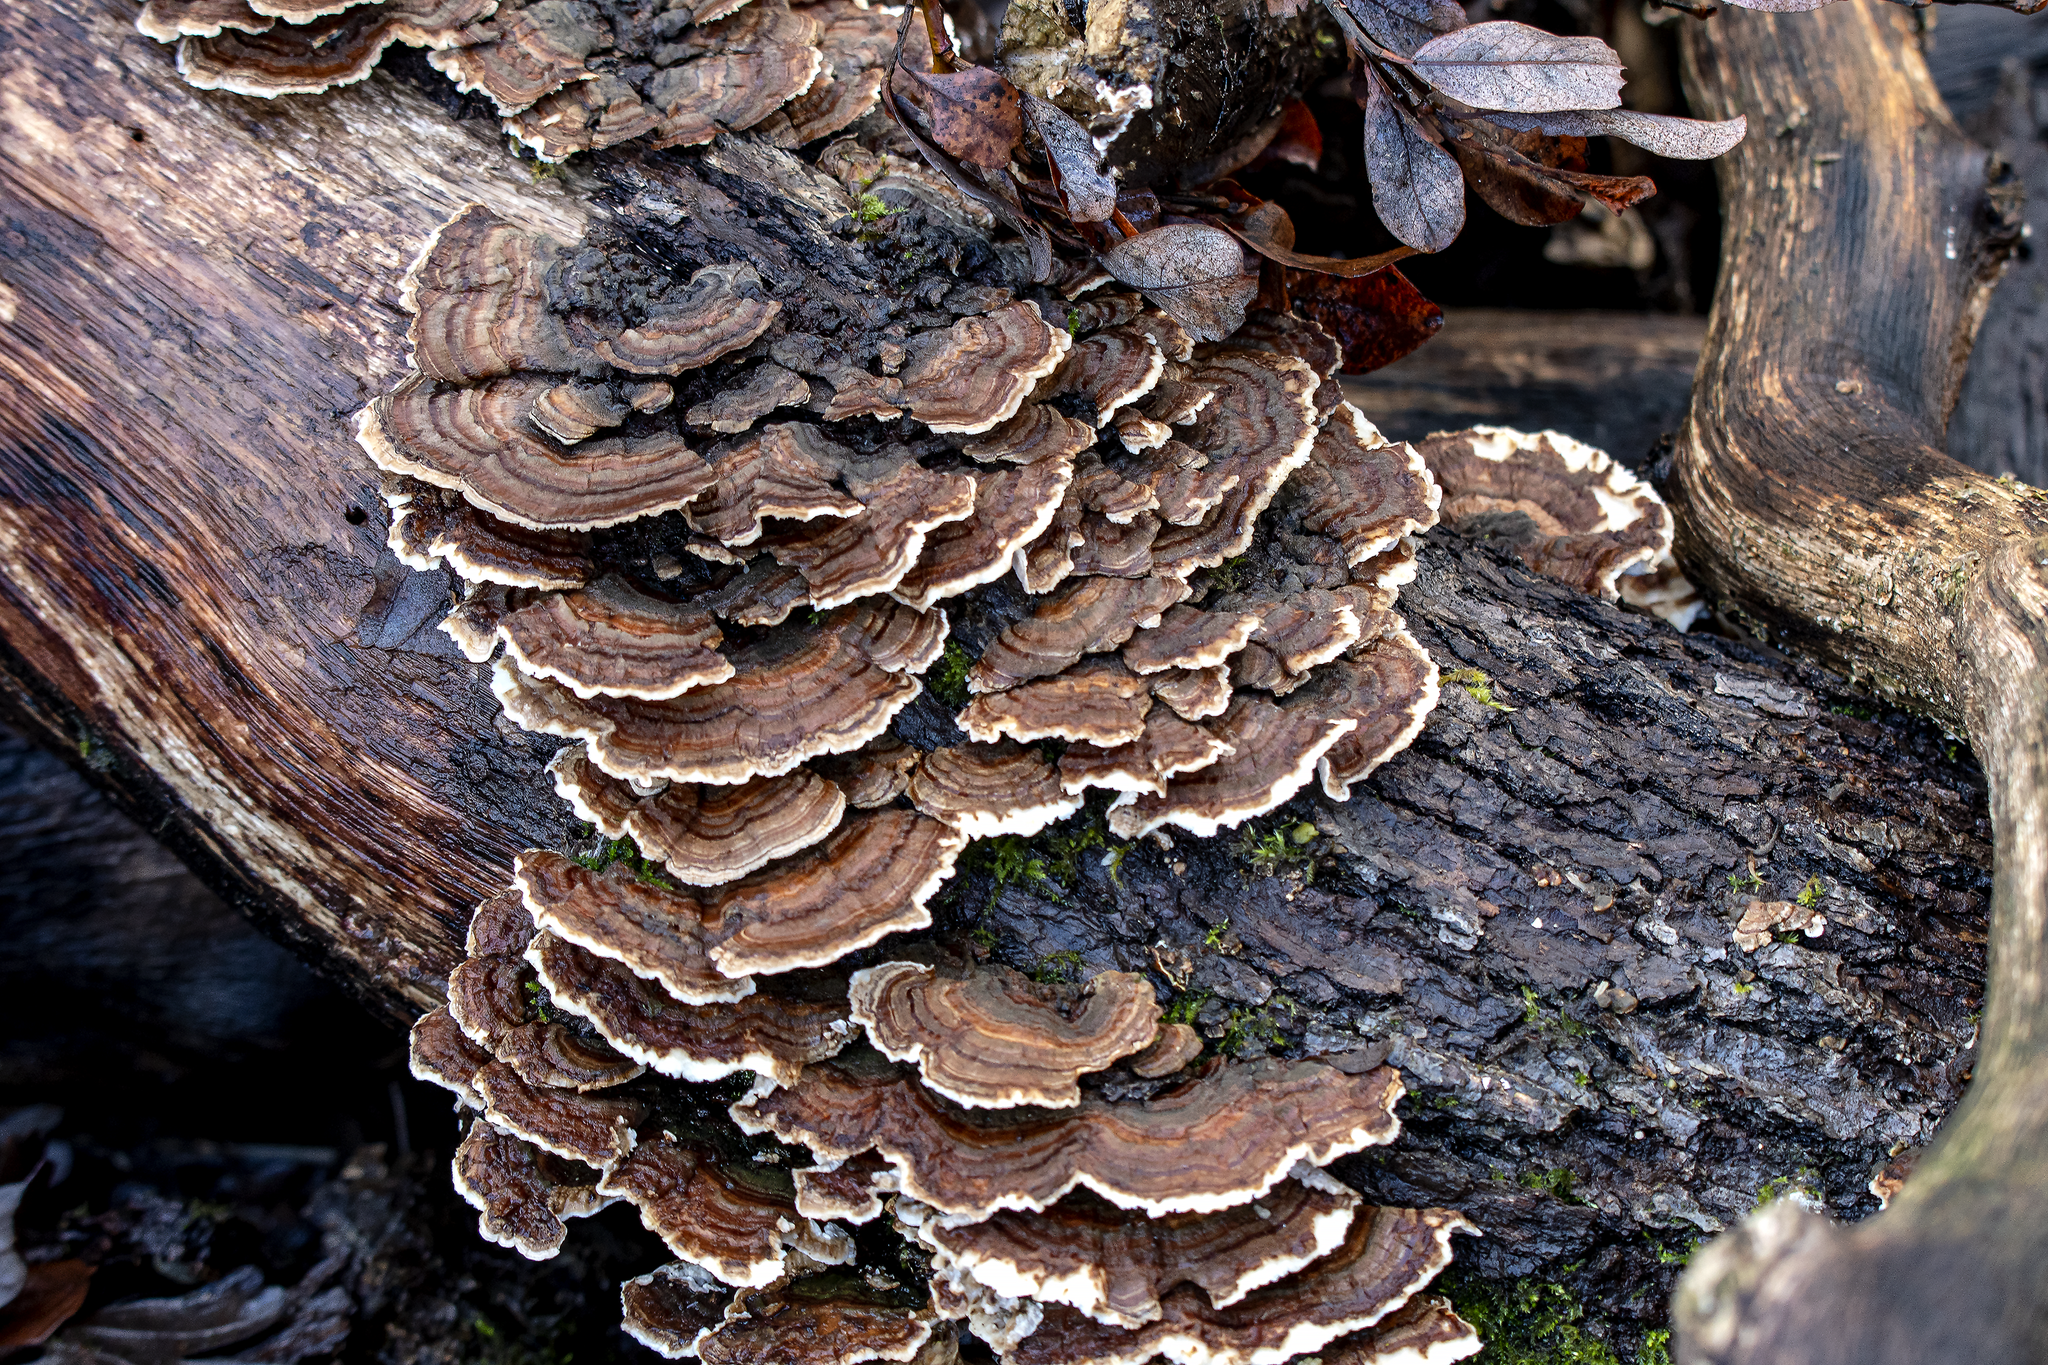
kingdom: Fungi
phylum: Basidiomycota
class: Agaricomycetes
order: Polyporales
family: Polyporaceae
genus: Trametes
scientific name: Trametes versicolor
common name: Turkeytail
